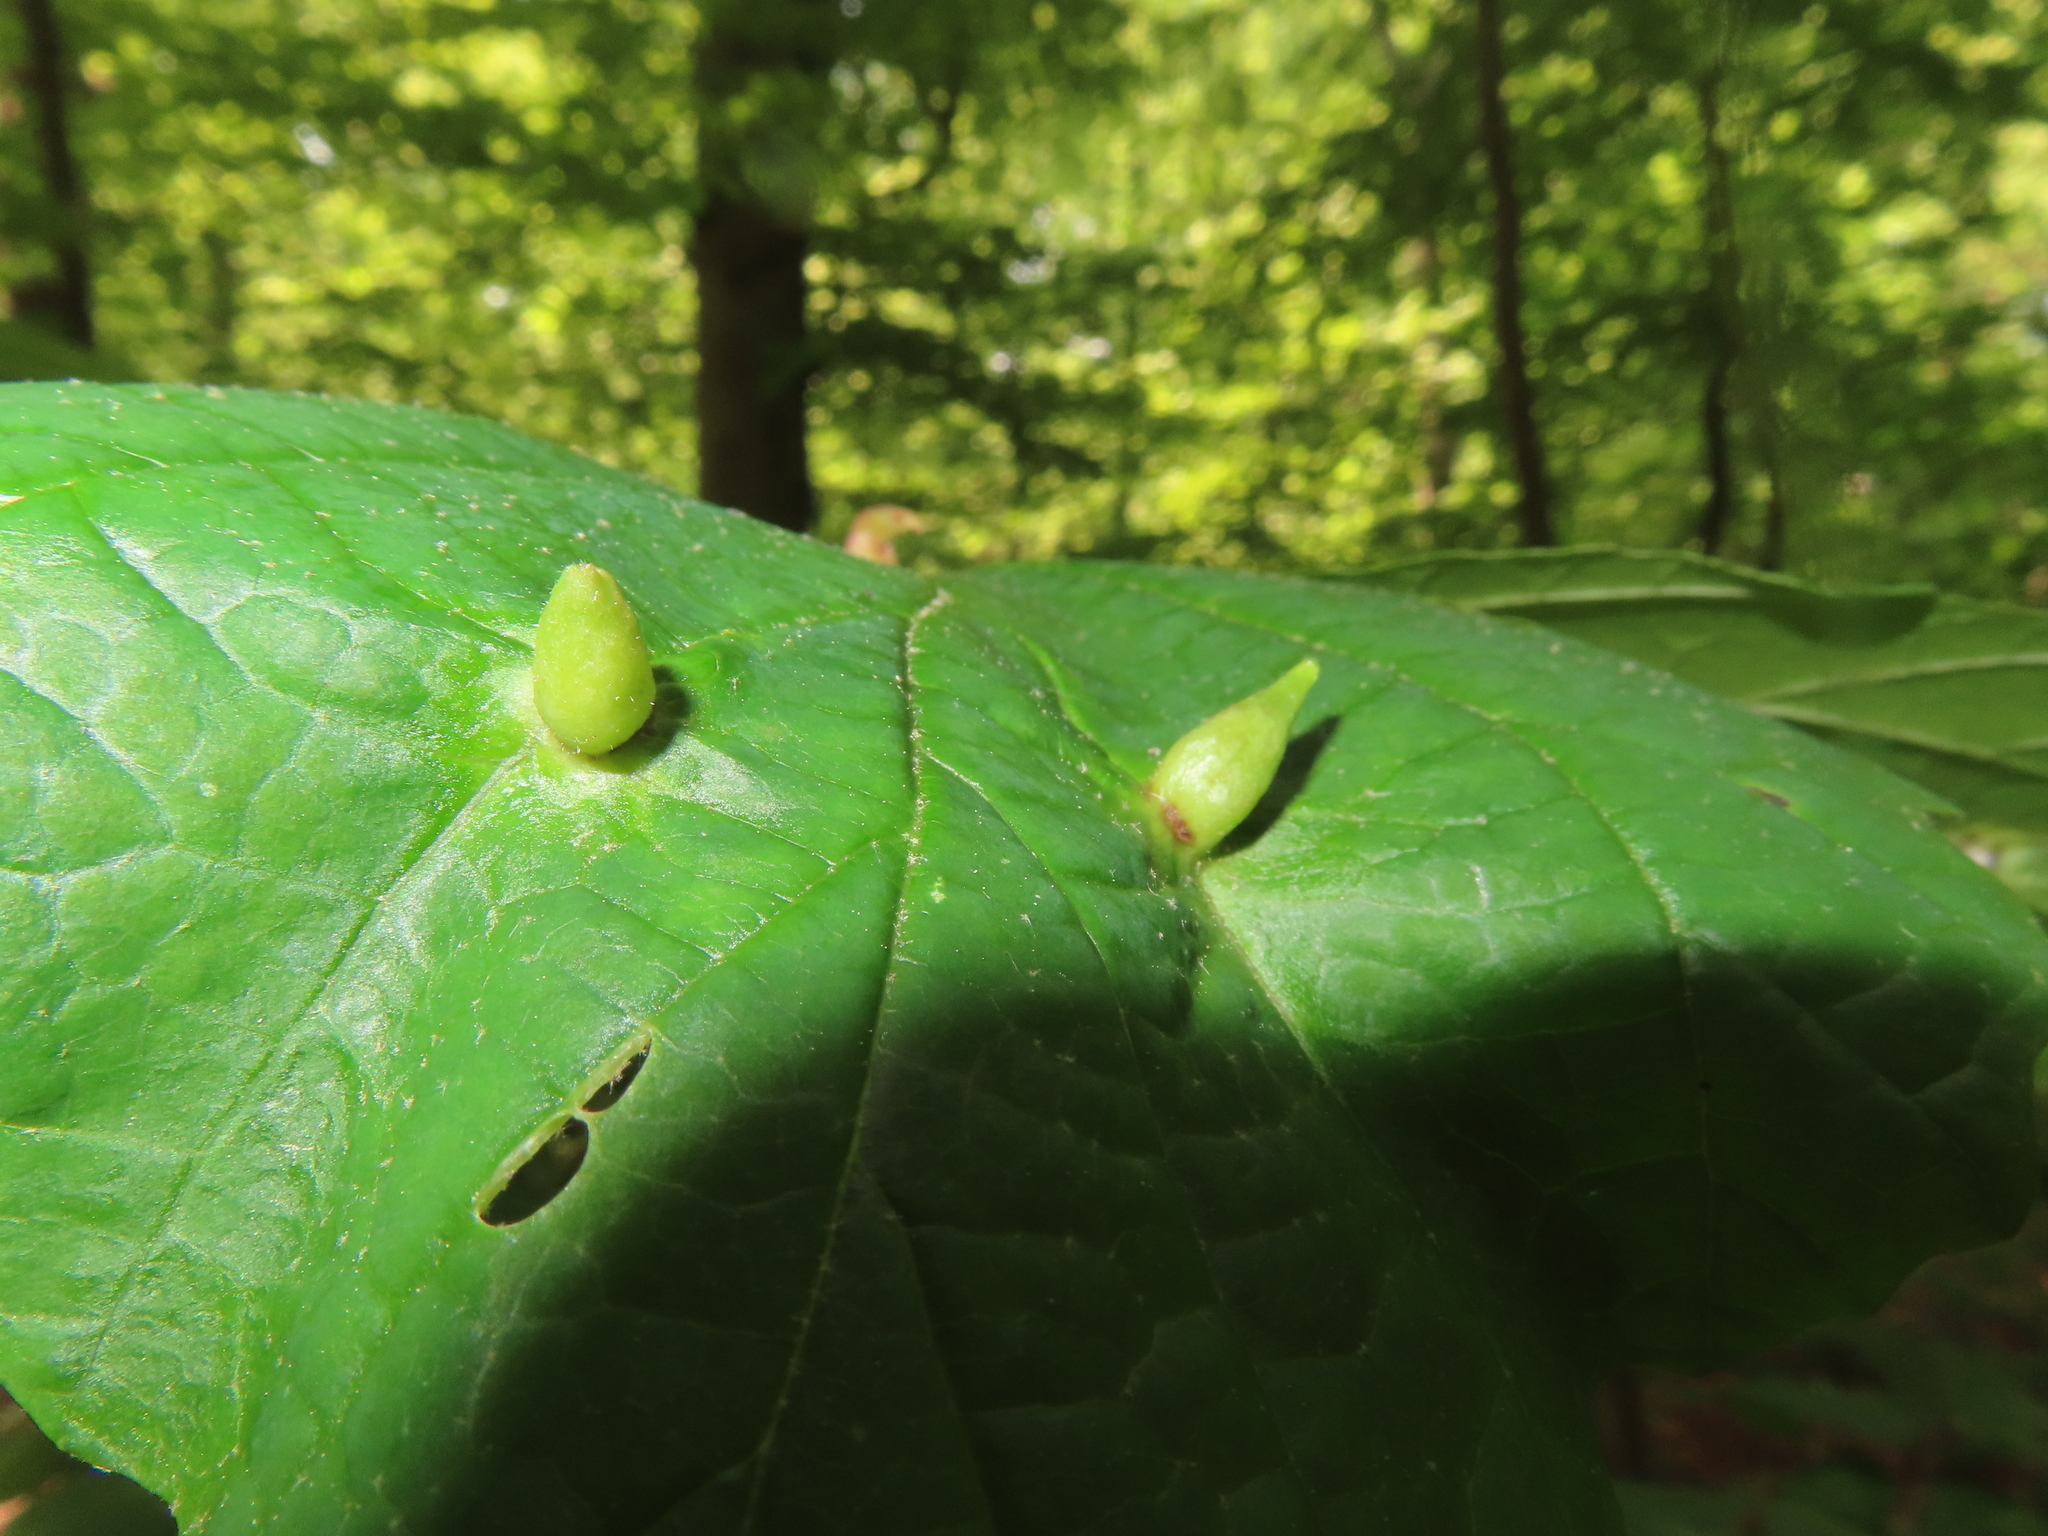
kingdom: Animalia
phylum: Arthropoda
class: Insecta
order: Hemiptera
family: Aphididae
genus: Hormaphis
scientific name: Hormaphis hamamelidis
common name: Witch-hazel cone gall aphid
